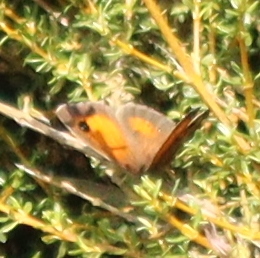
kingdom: Animalia
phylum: Arthropoda
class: Insecta
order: Lepidoptera
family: Nymphalidae
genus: Pyronia
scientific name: Pyronia tithonus
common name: Gatekeeper
